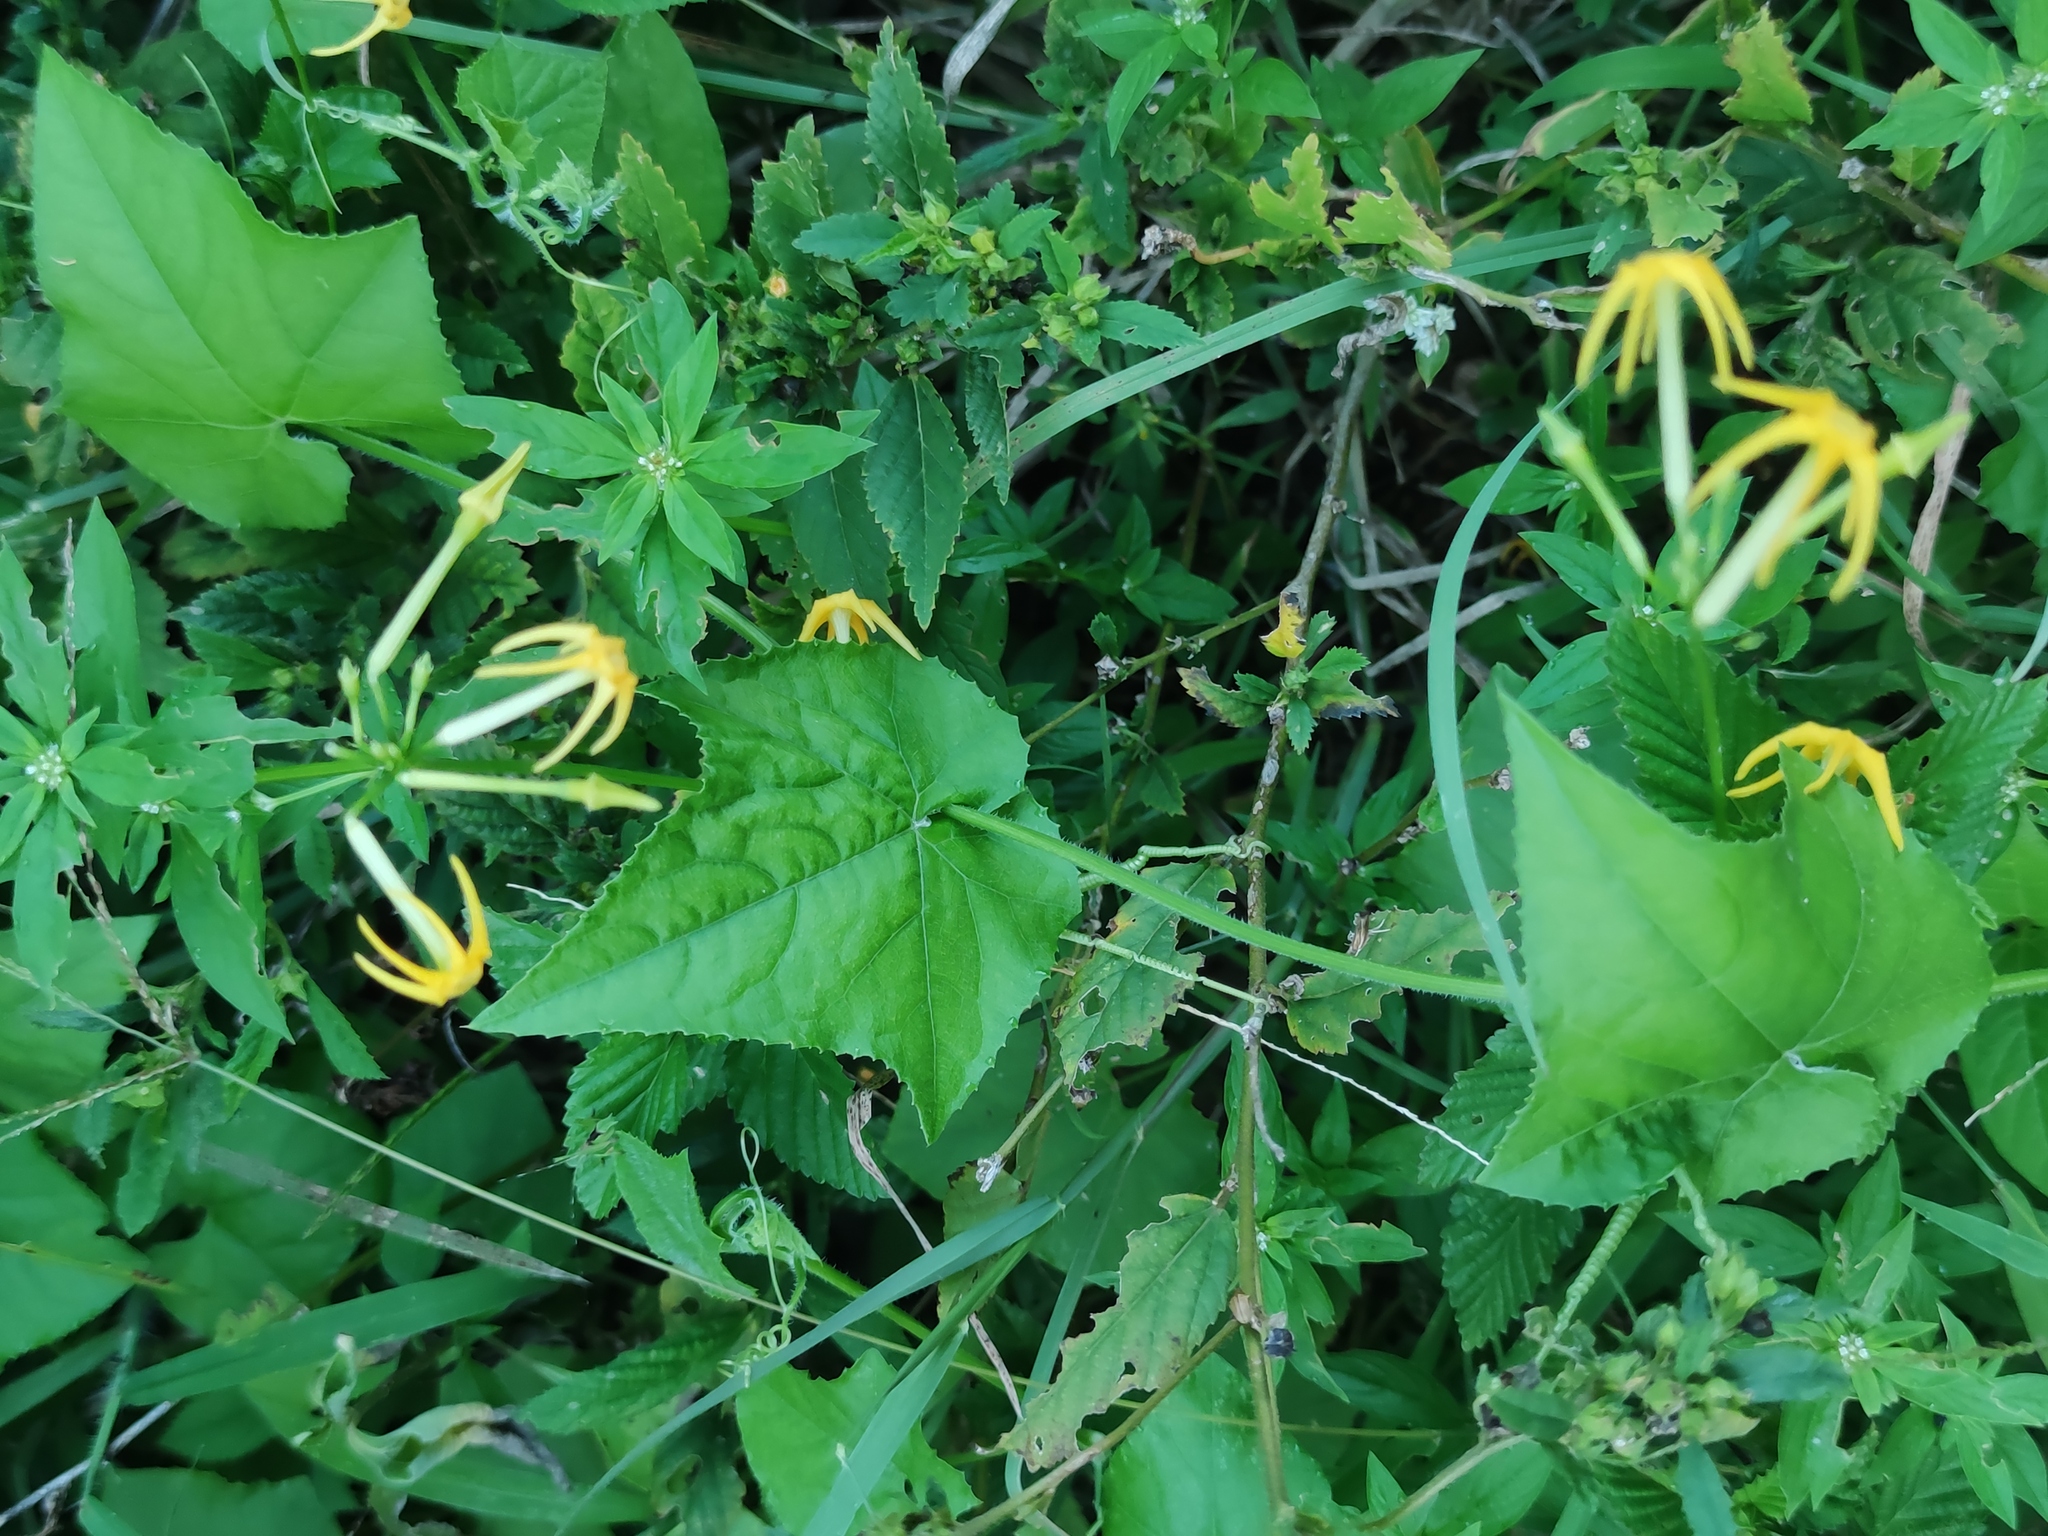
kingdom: Plantae
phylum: Tracheophyta
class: Magnoliopsida
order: Cucurbitales
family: Cucurbitaceae
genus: Cyclanthera
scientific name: Cyclanthera carthagenensis
